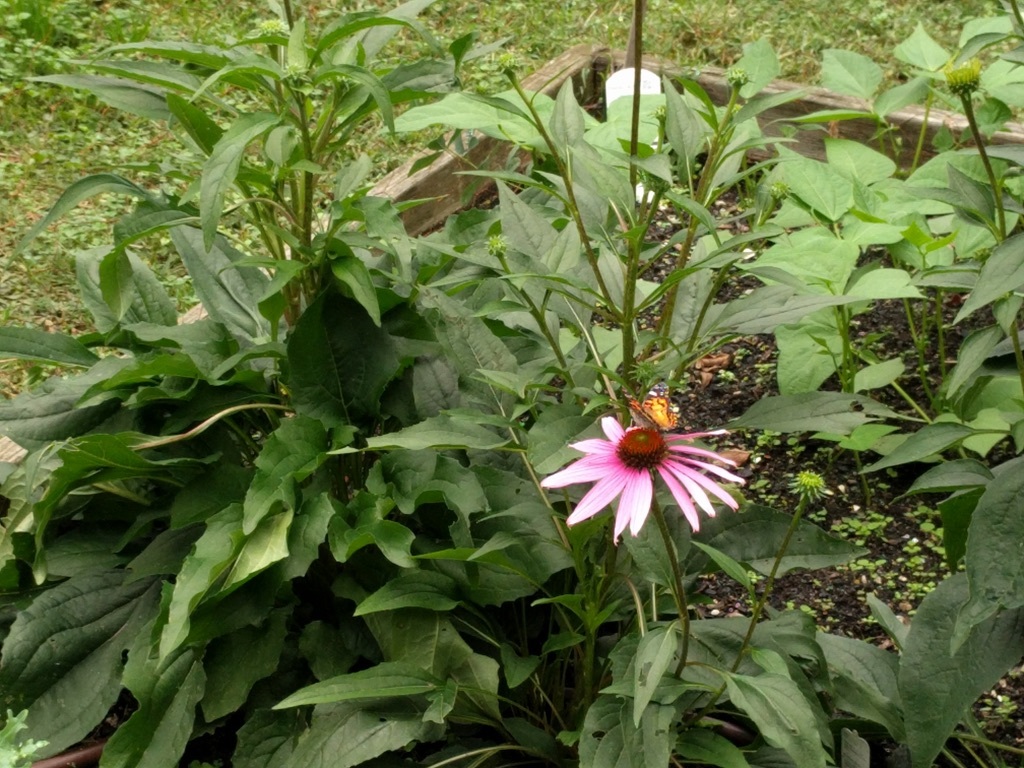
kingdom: Animalia
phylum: Arthropoda
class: Insecta
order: Lepidoptera
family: Nymphalidae
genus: Vanessa
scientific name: Vanessa virginiensis
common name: American lady
